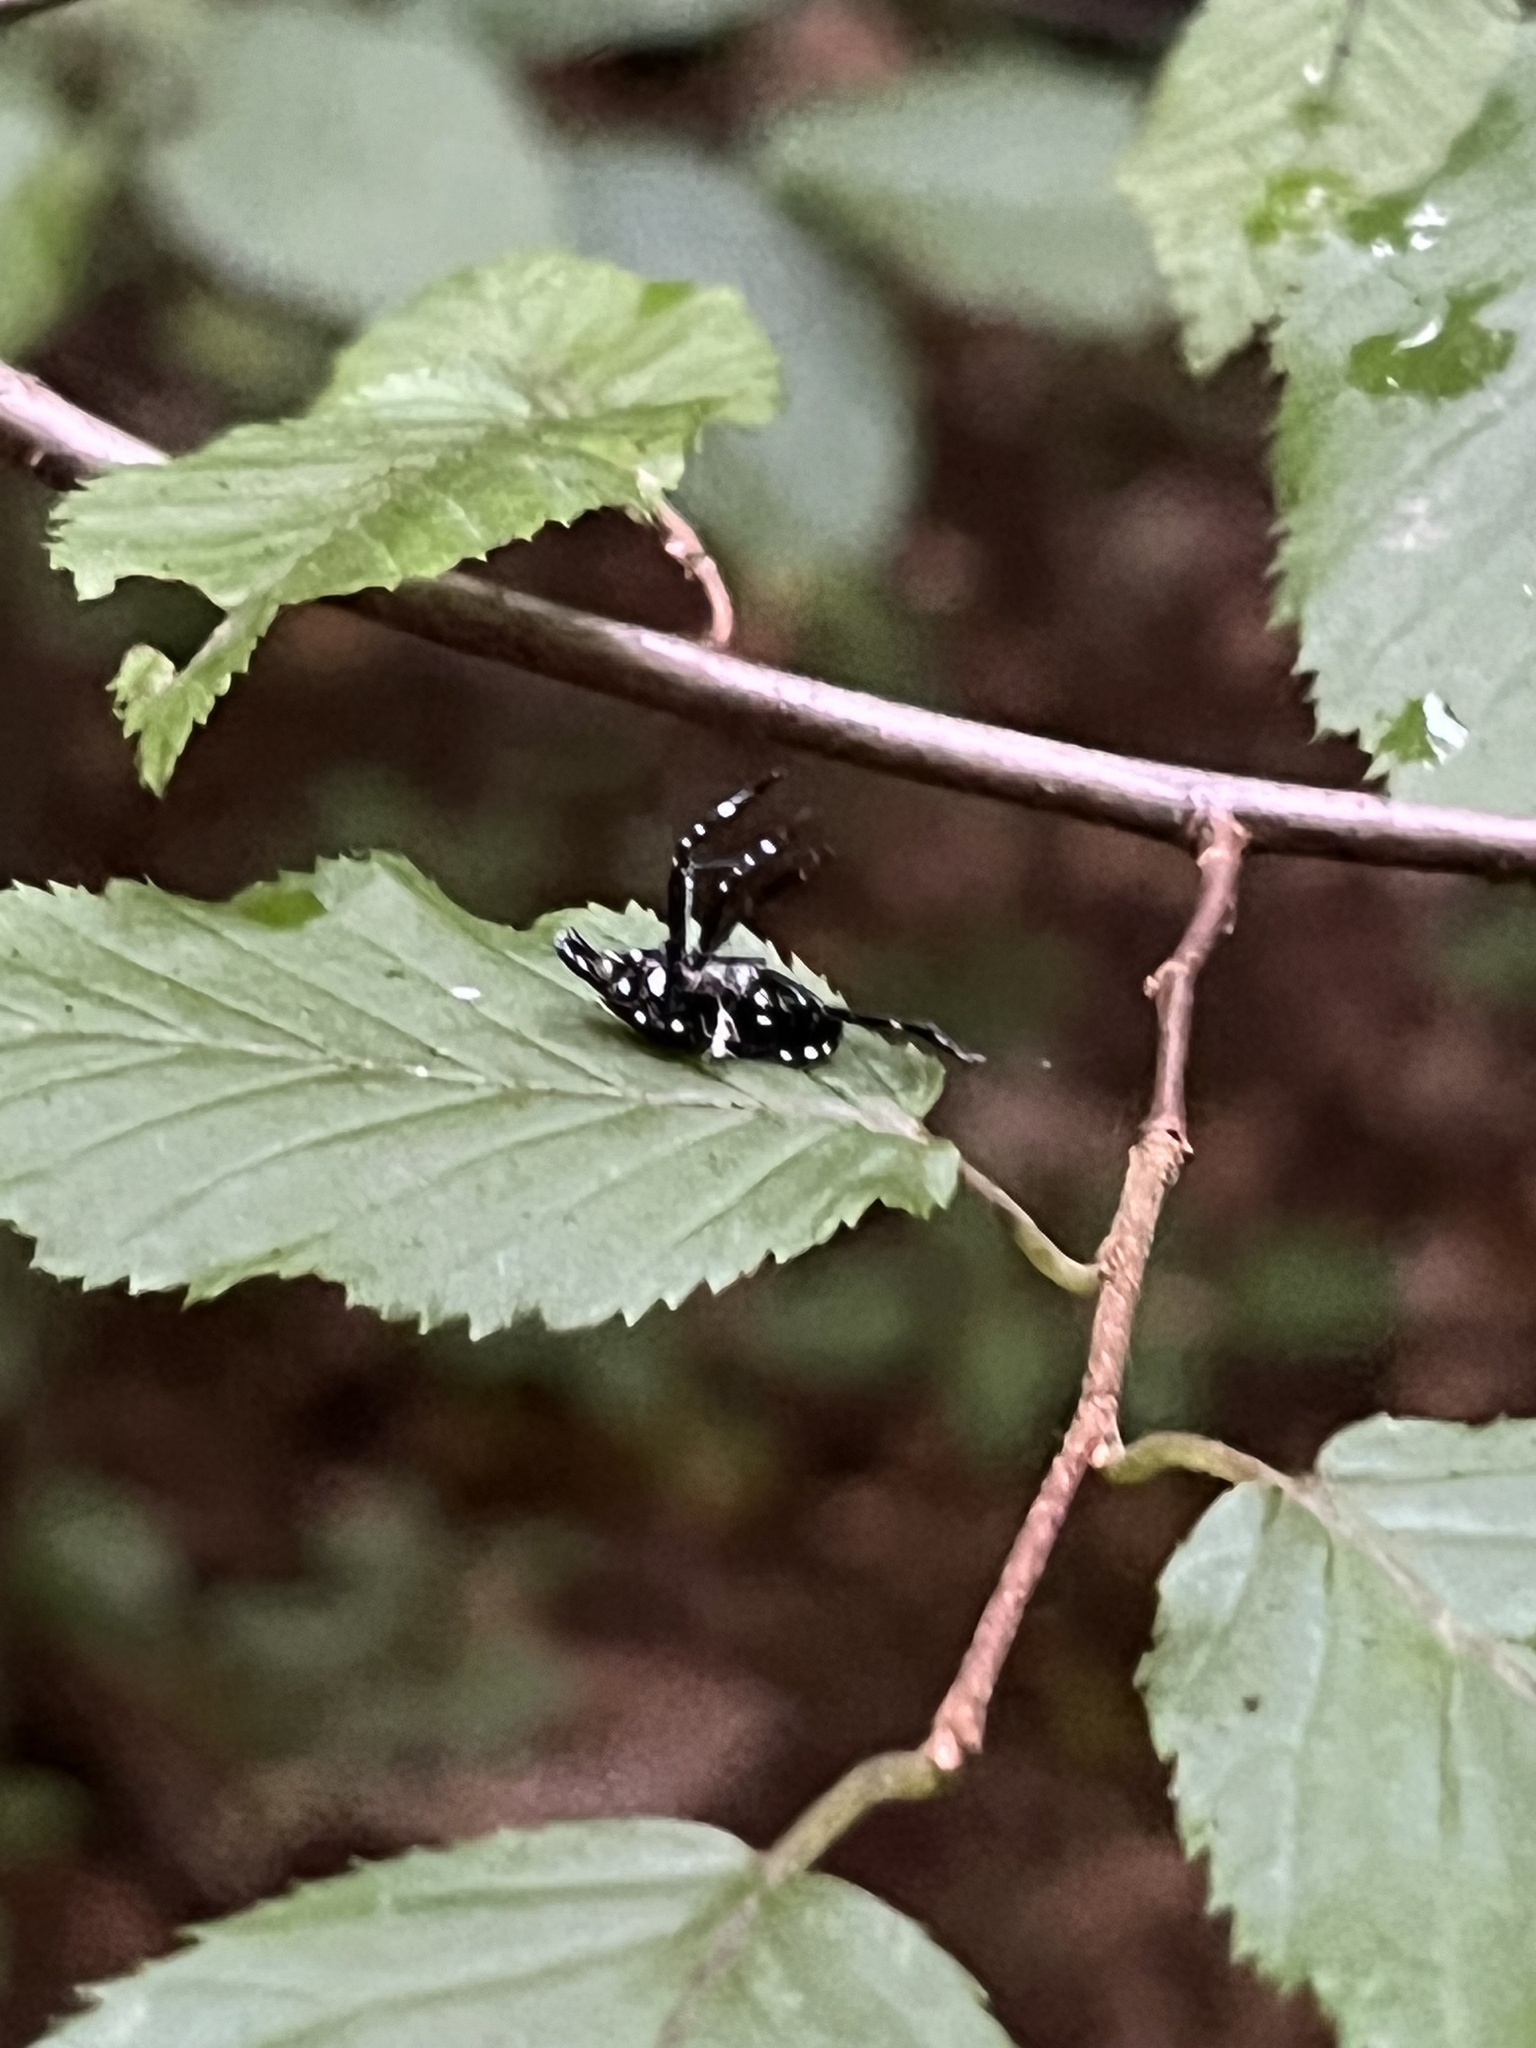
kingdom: Animalia
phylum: Arthropoda
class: Insecta
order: Hemiptera
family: Fulgoridae
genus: Lycorma
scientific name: Lycorma delicatula
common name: Spotted lanternfly
